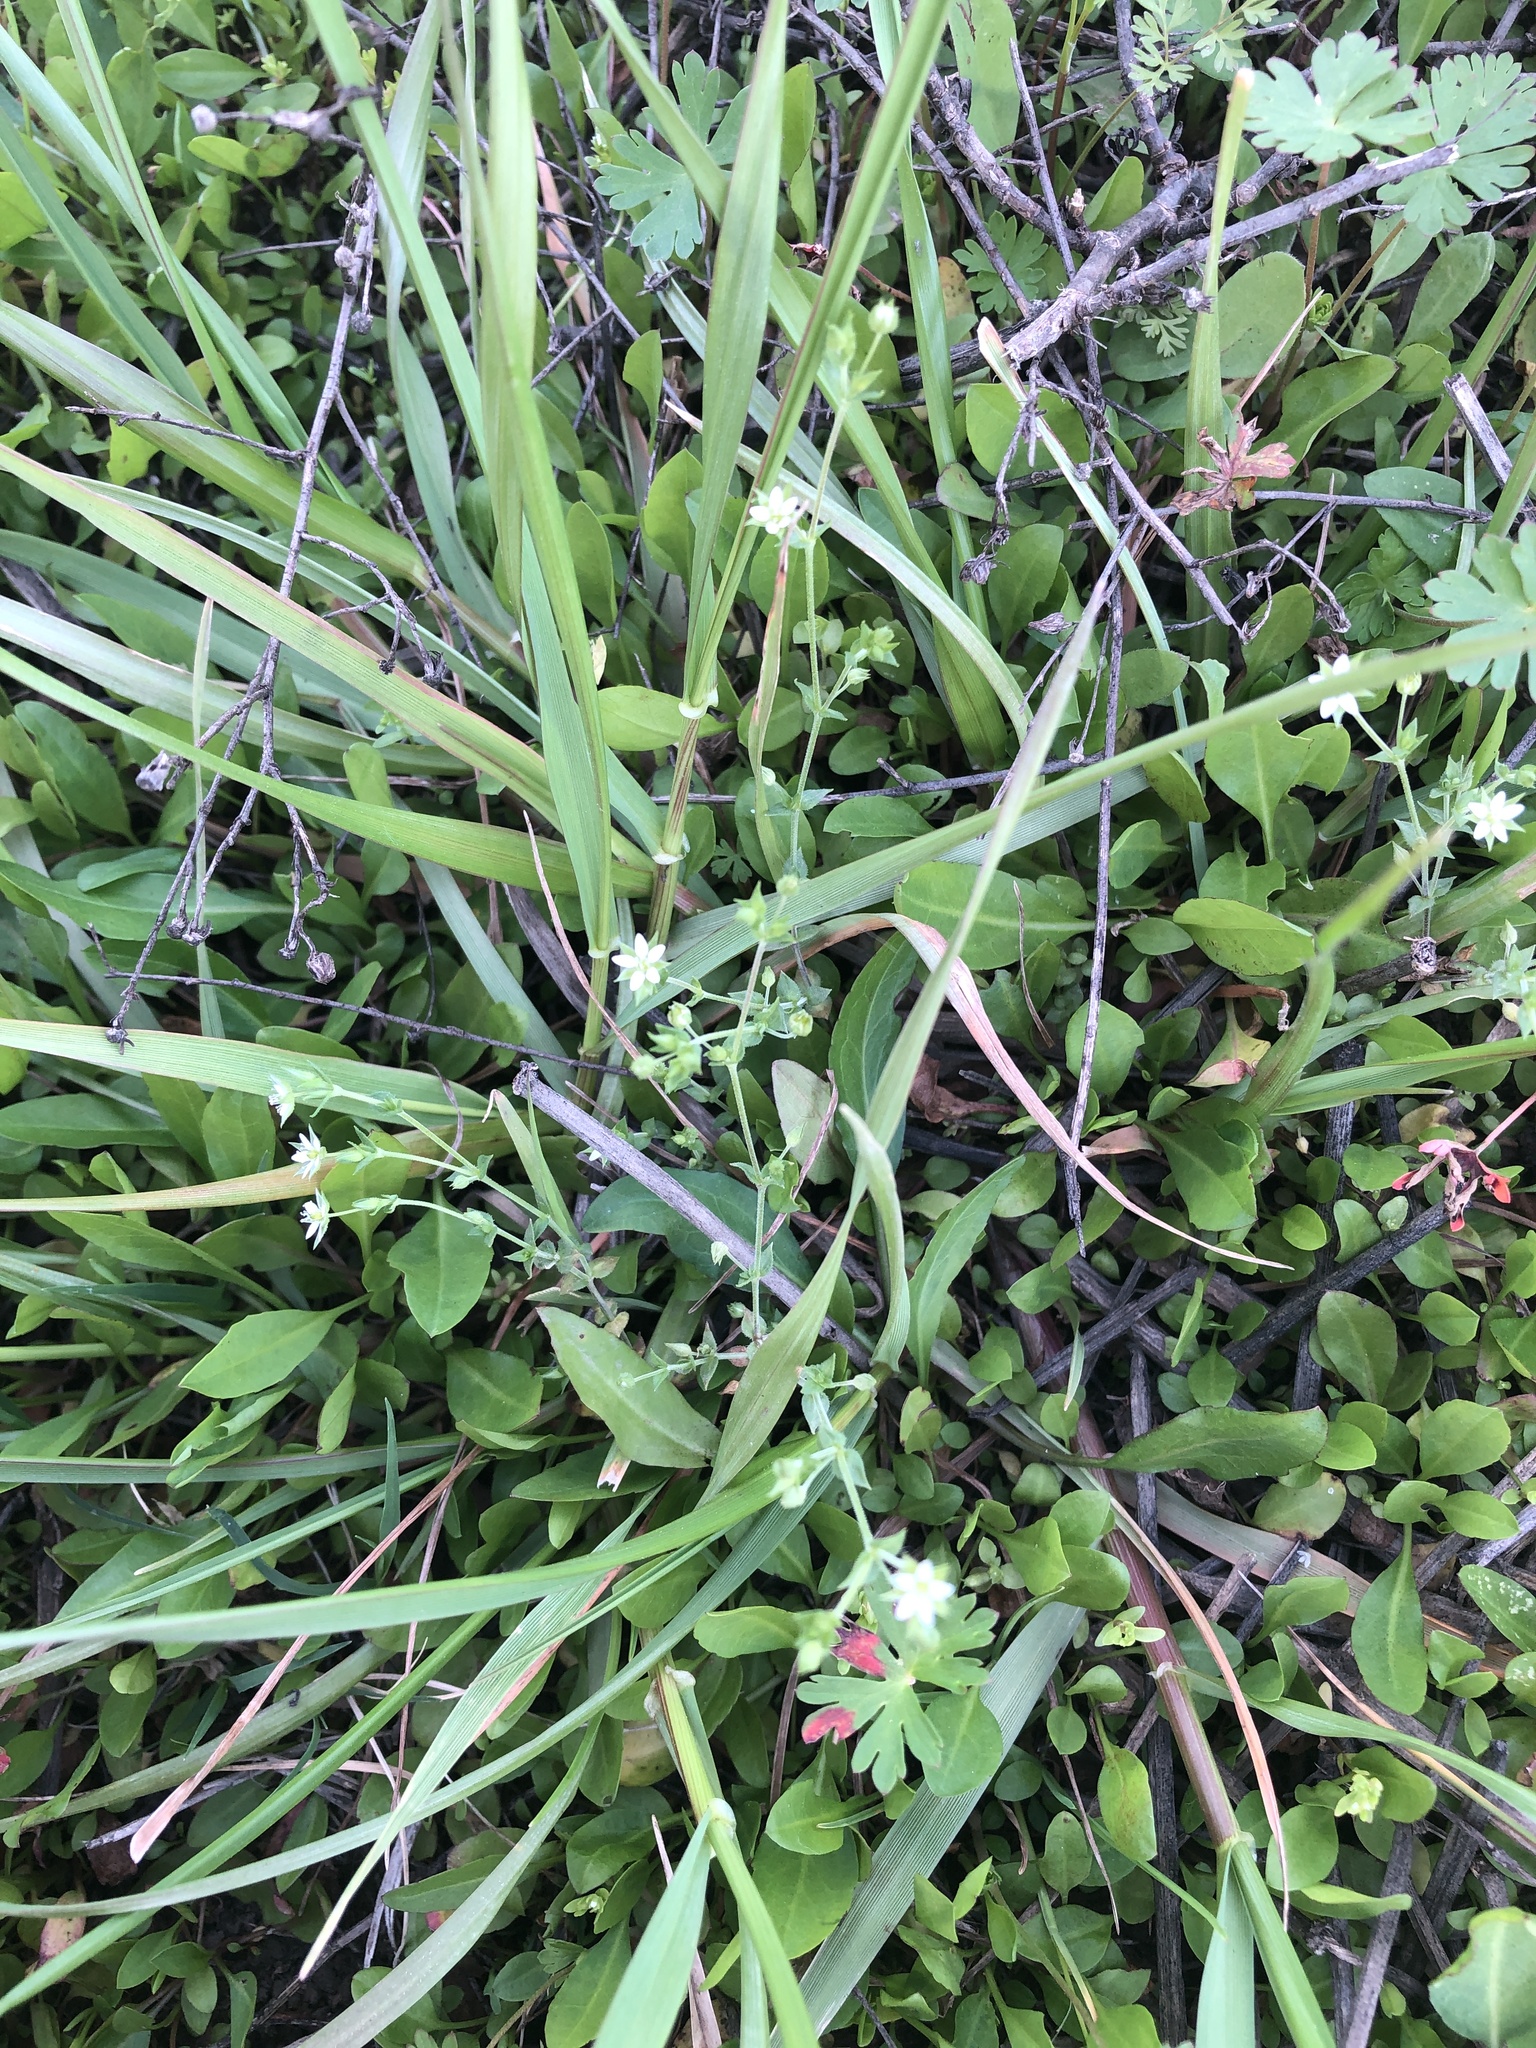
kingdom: Plantae
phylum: Tracheophyta
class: Magnoliopsida
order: Caryophyllales
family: Caryophyllaceae
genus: Arenaria
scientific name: Arenaria serpyllifolia
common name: Thyme-leaved sandwort
